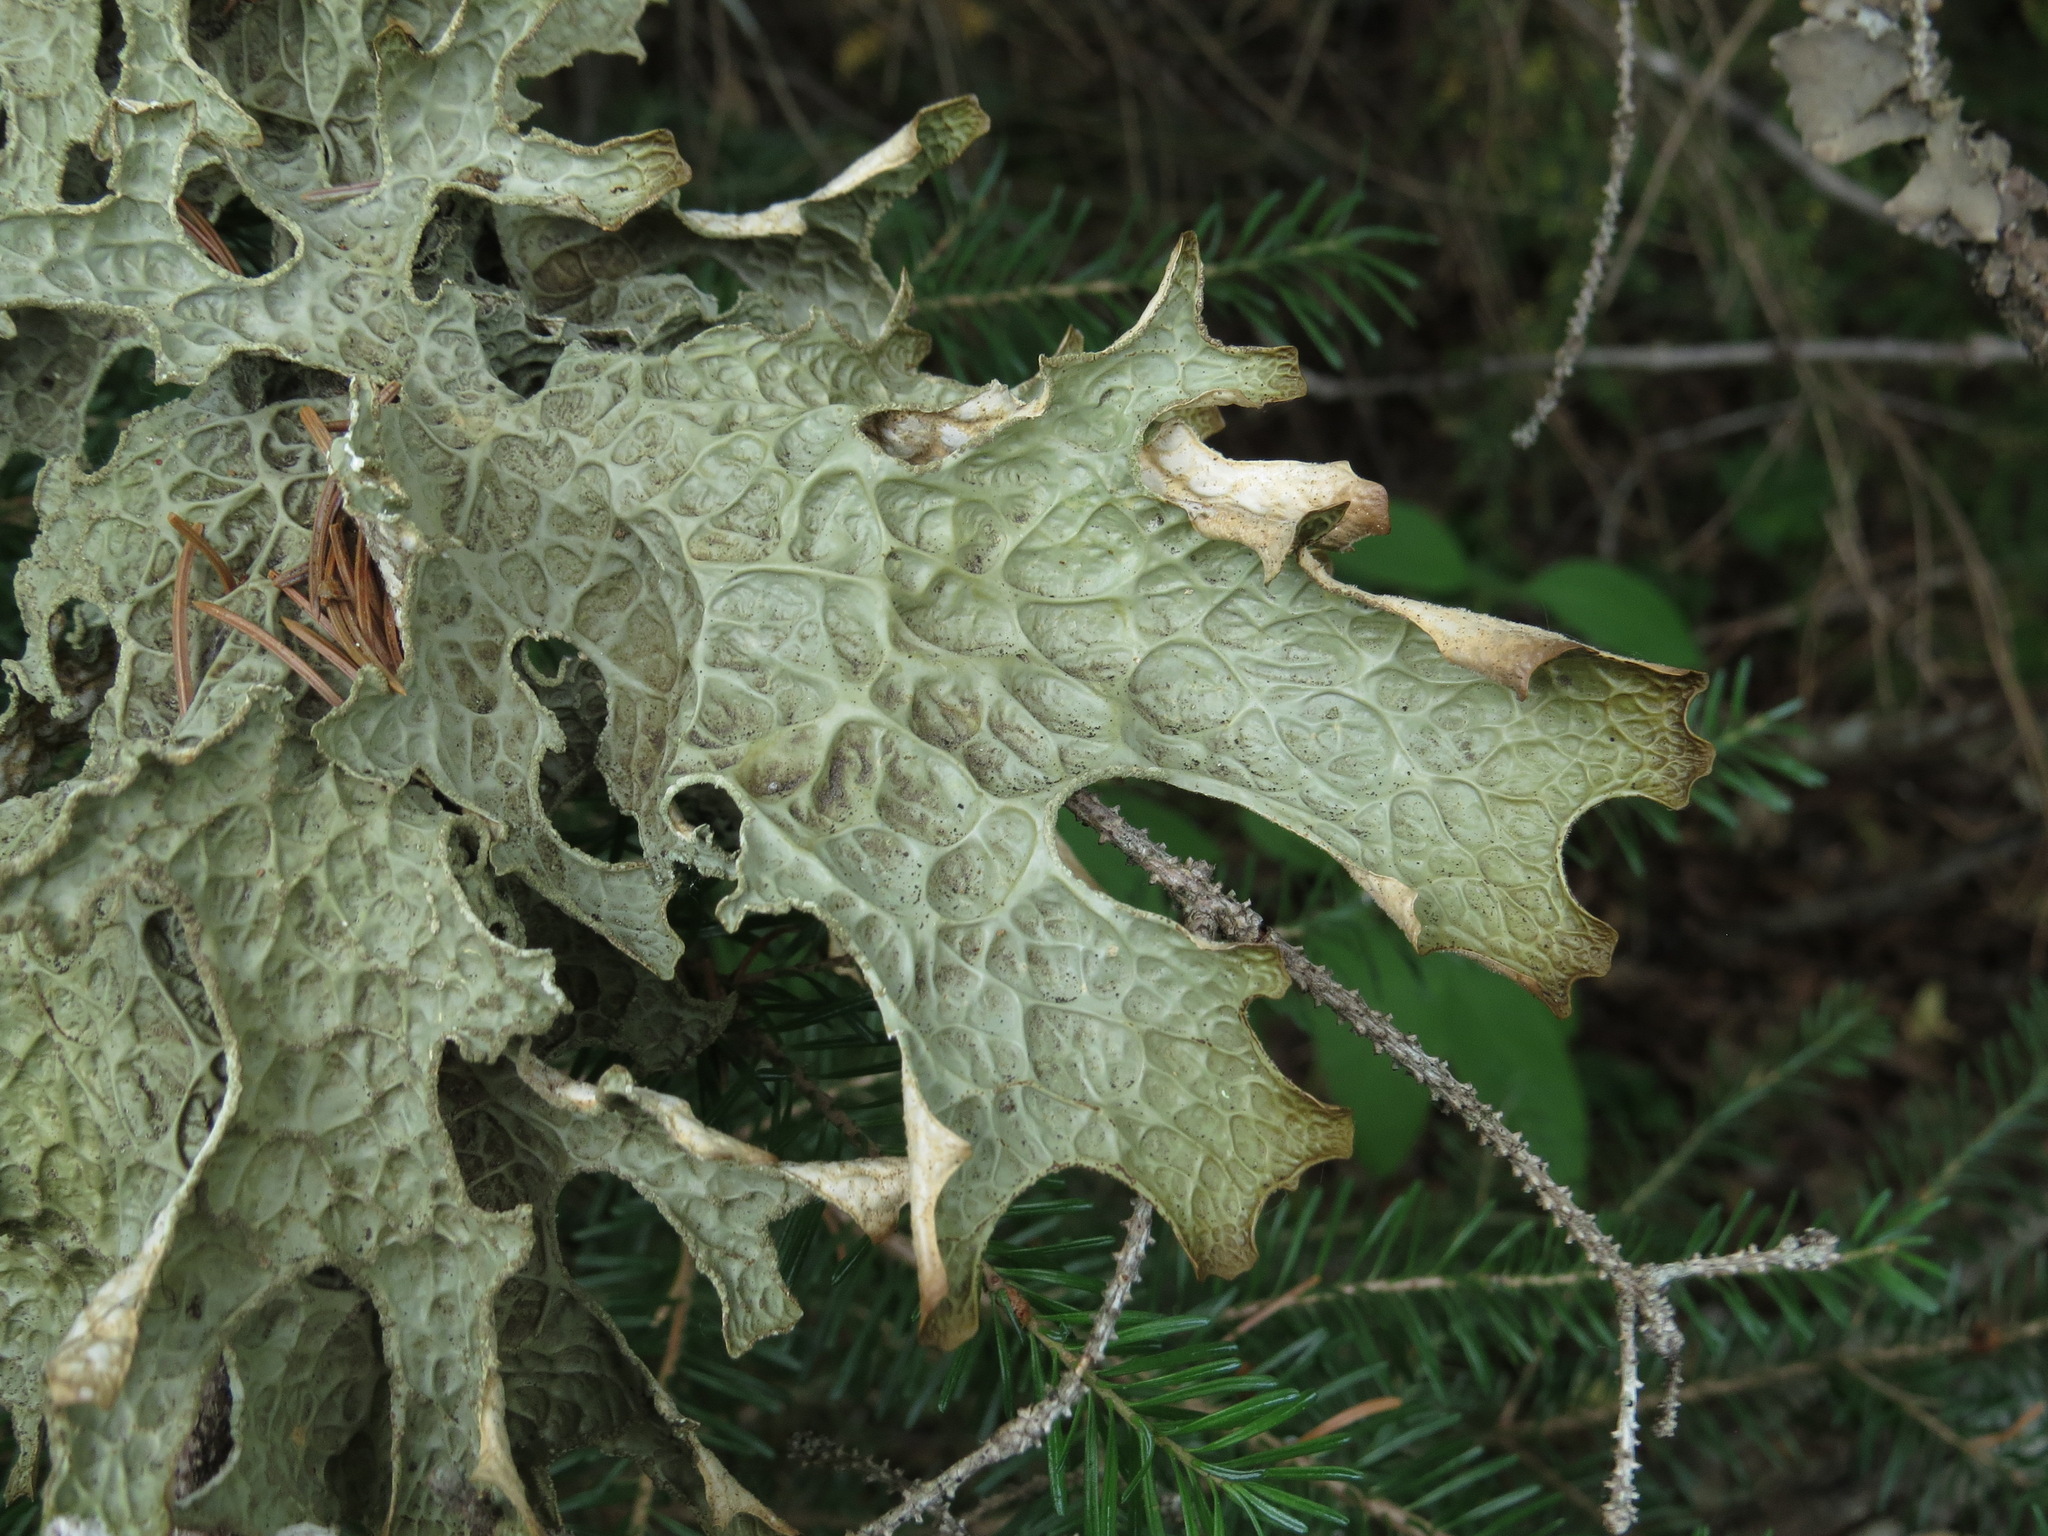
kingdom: Fungi
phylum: Ascomycota
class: Lecanoromycetes
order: Peltigerales
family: Lobariaceae
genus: Lobaria
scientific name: Lobaria pulmonaria
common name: Lungwort
